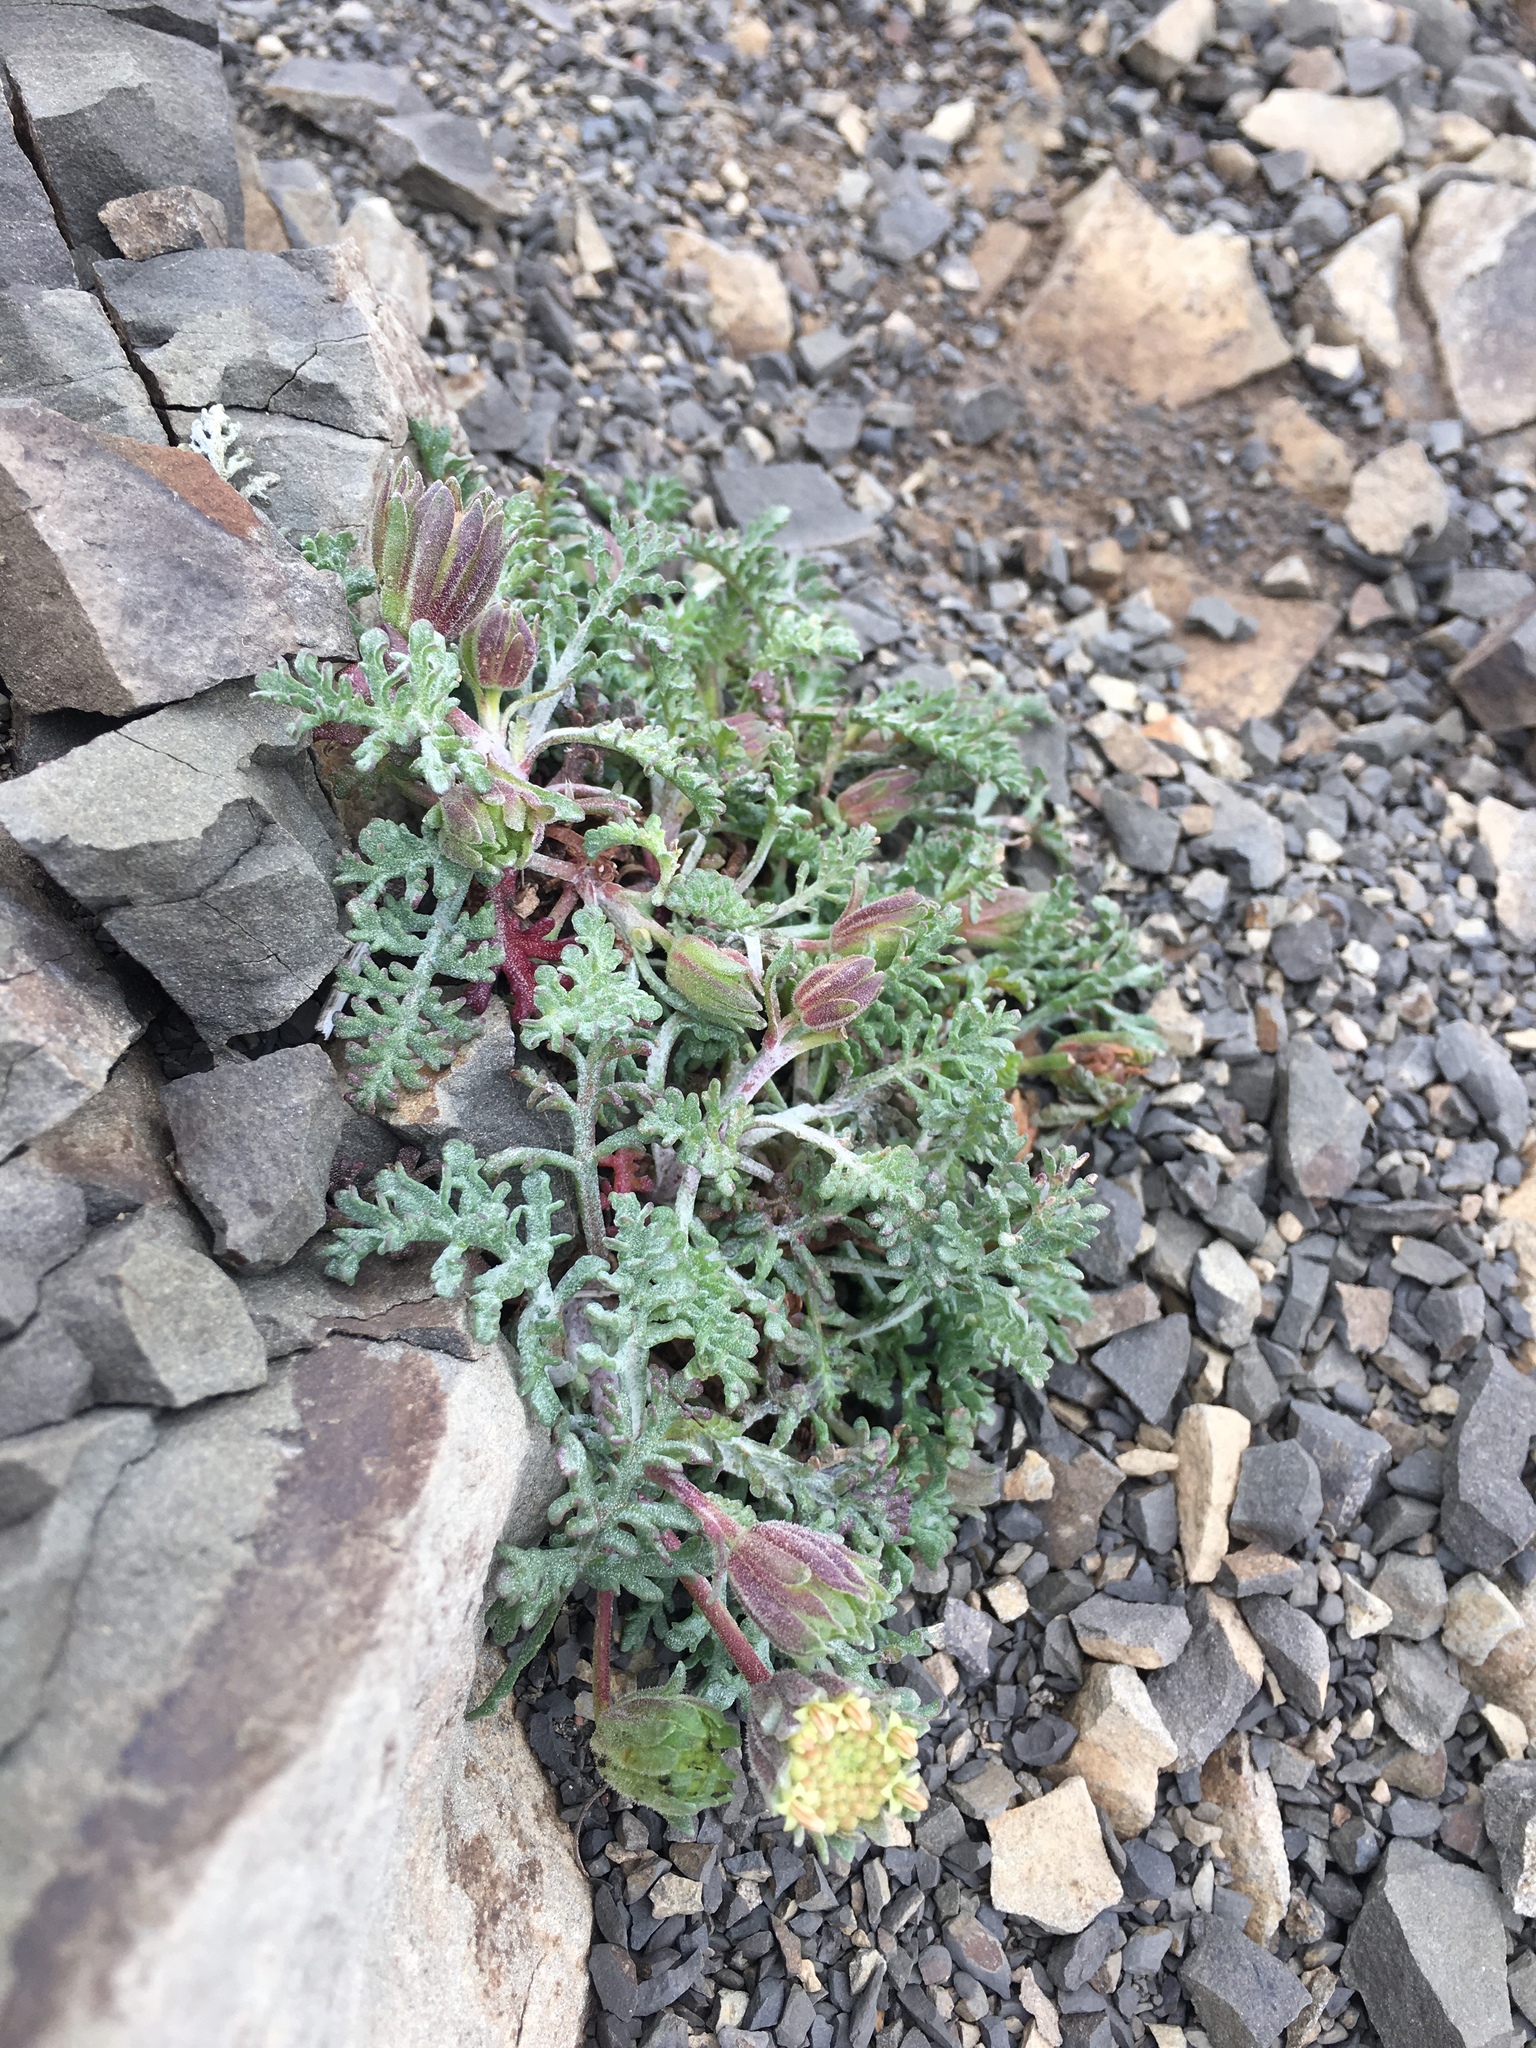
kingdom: Plantae
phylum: Tracheophyta
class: Magnoliopsida
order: Asterales
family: Asteraceae
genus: Chaenactis
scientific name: Chaenactis douglasii
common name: Hoary pincushion
